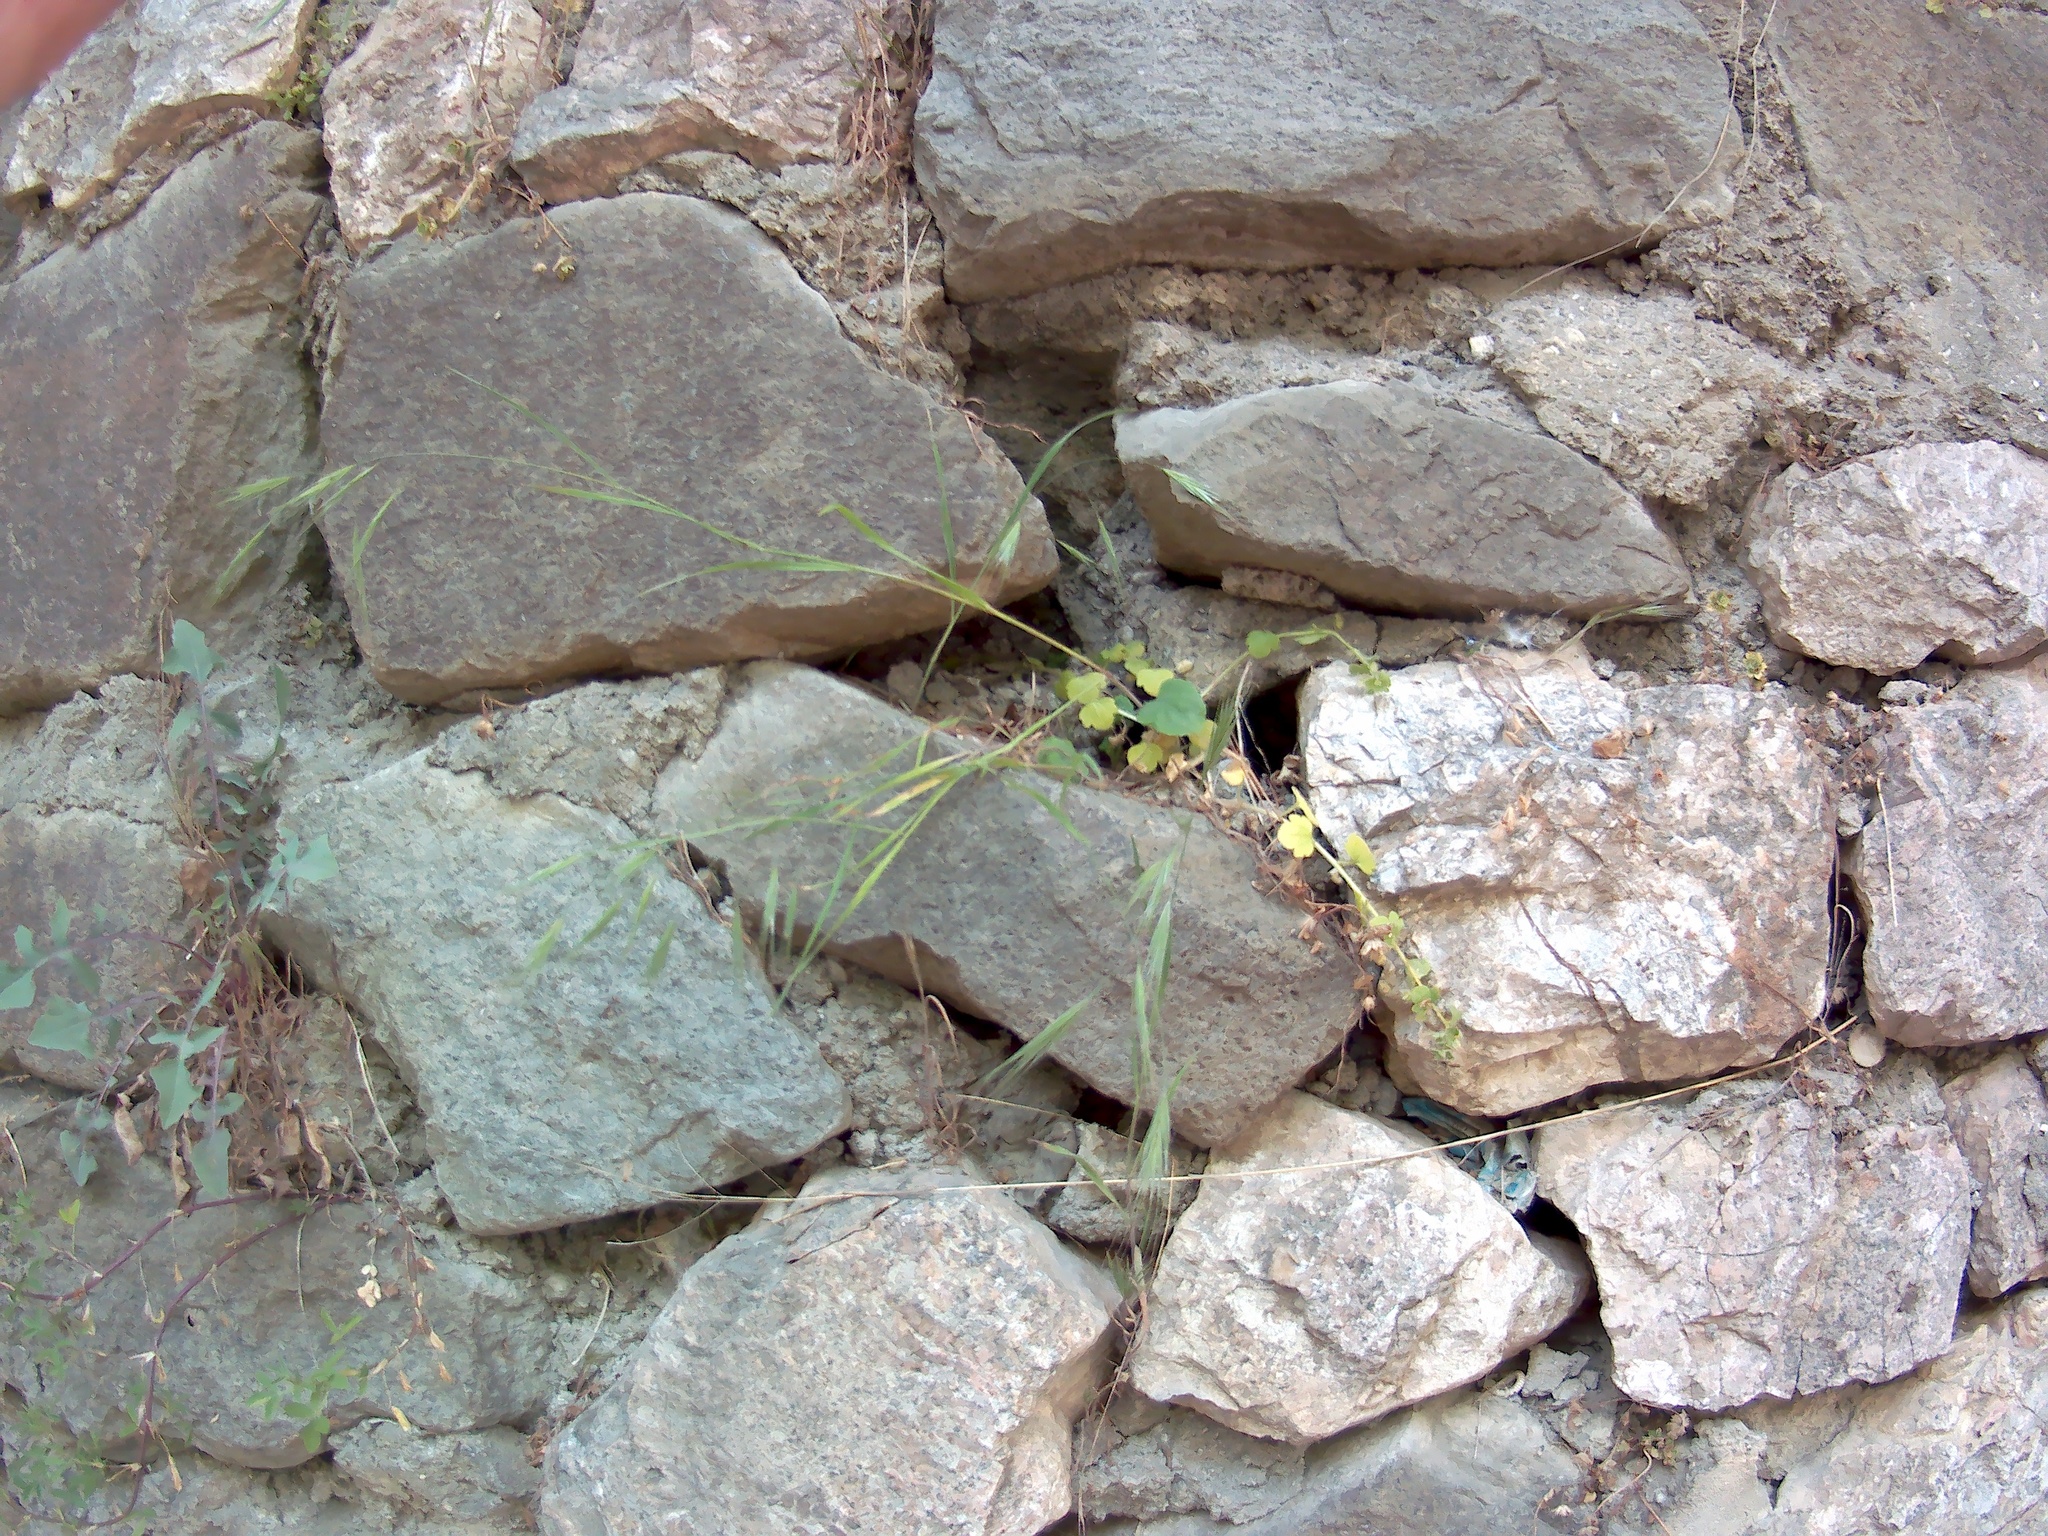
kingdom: Plantae
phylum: Tracheophyta
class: Liliopsida
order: Poales
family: Poaceae
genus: Bromus
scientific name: Bromus sterilis
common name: Poverty brome
